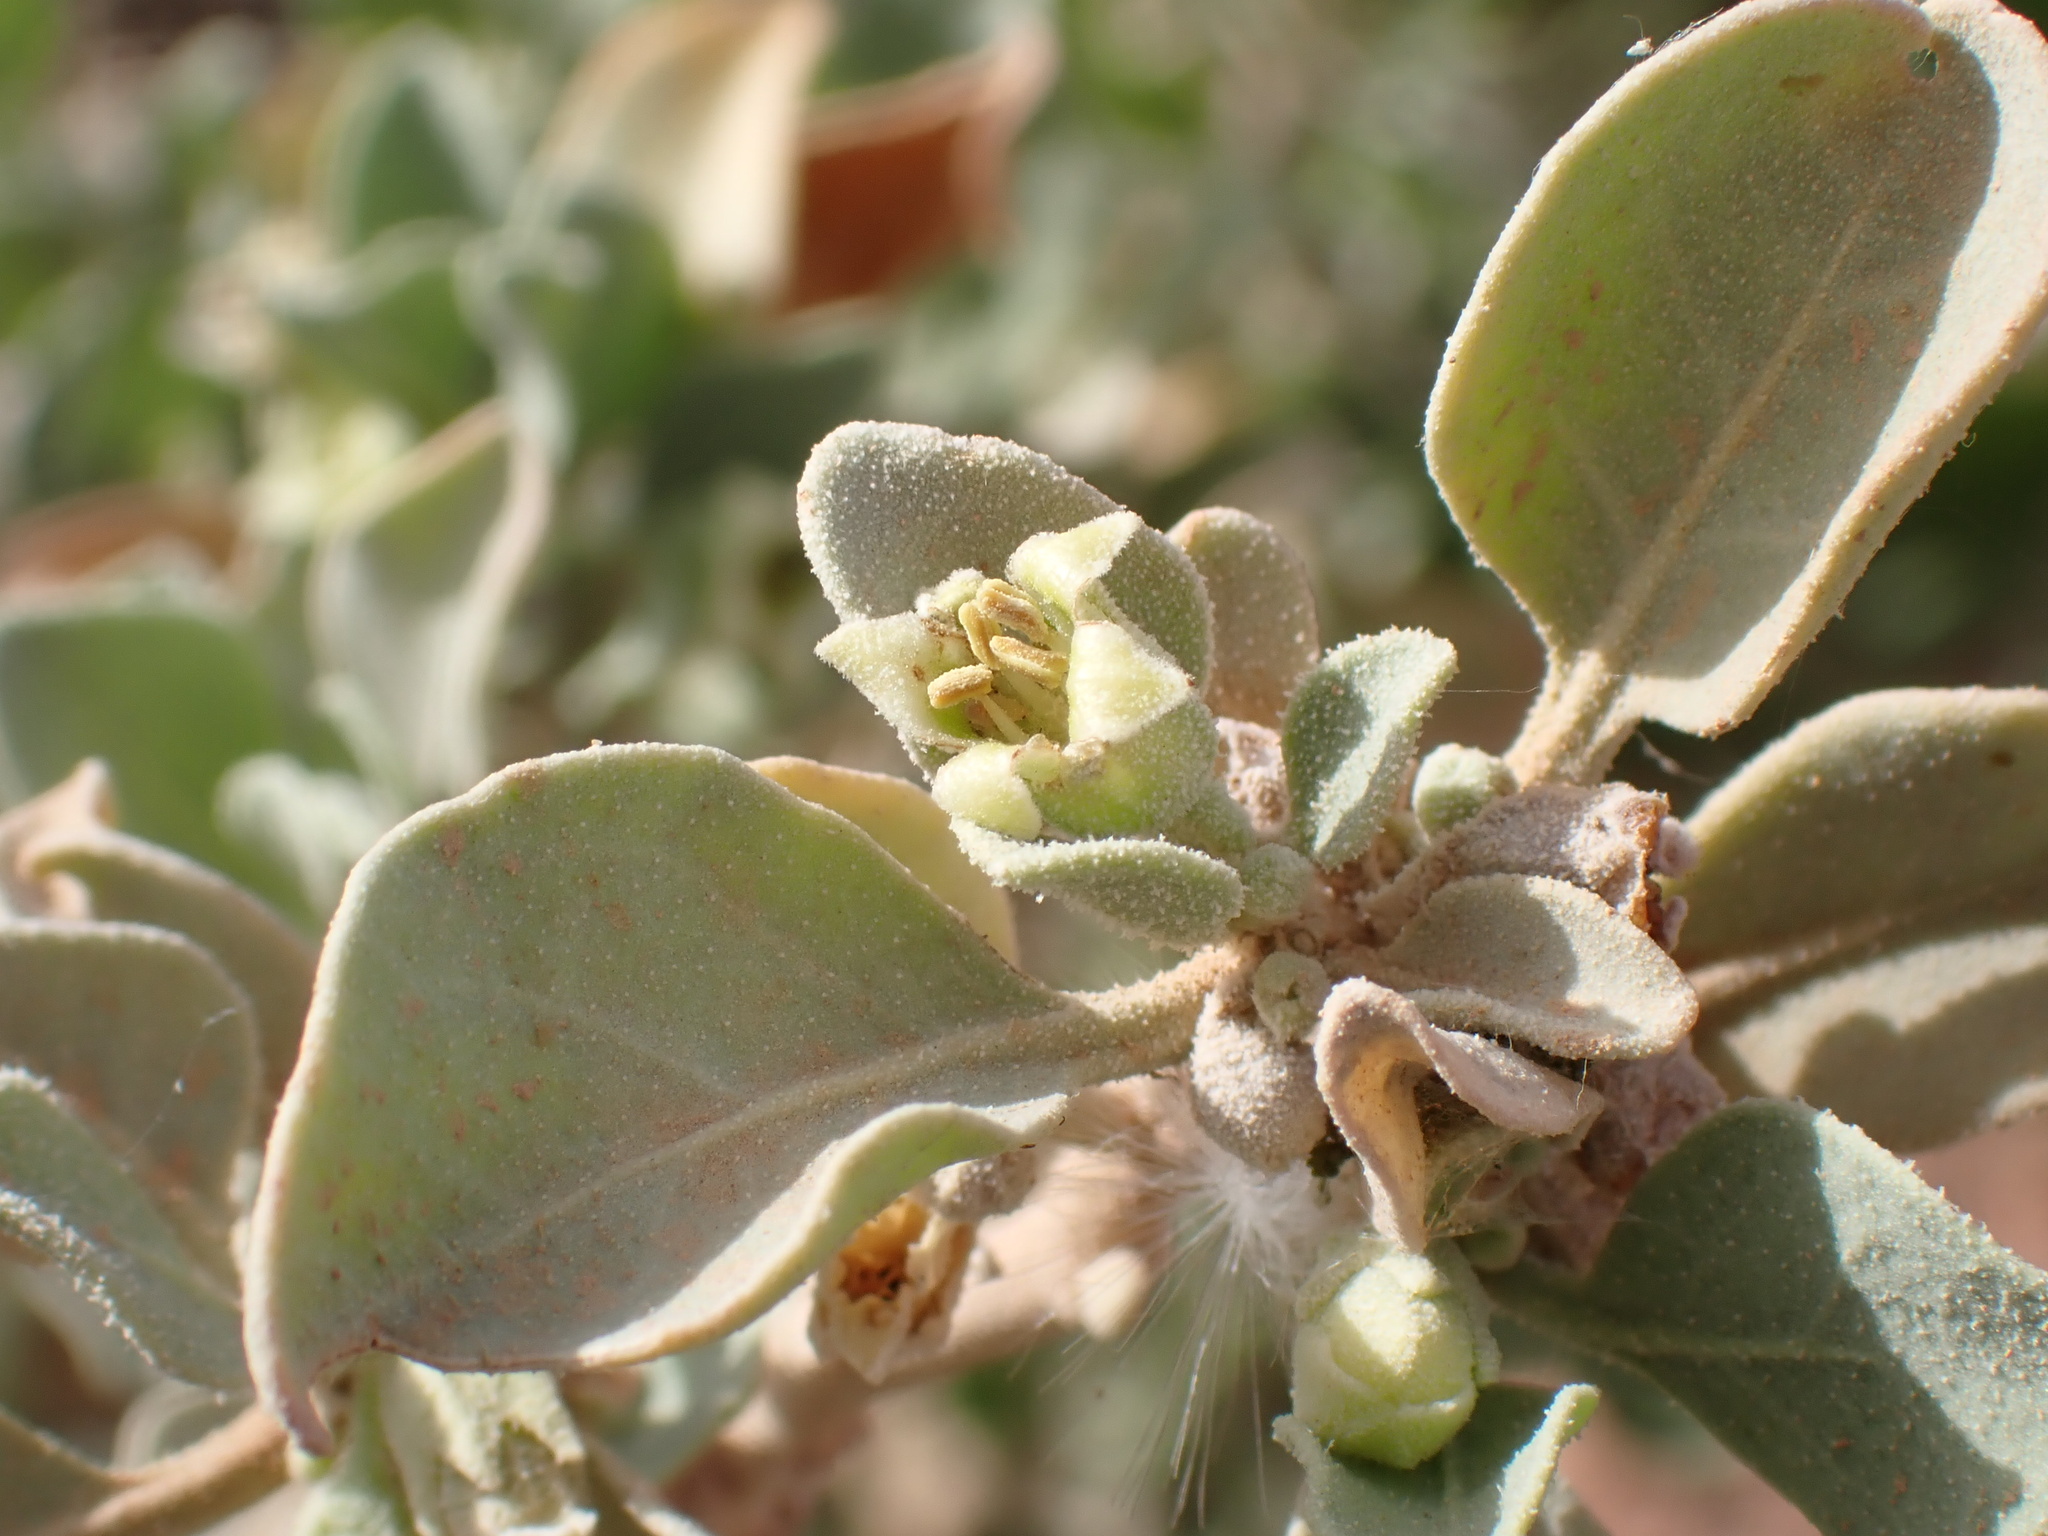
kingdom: Plantae
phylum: Tracheophyta
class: Magnoliopsida
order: Solanales
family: Solanaceae
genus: Withania
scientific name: Withania adpressa
